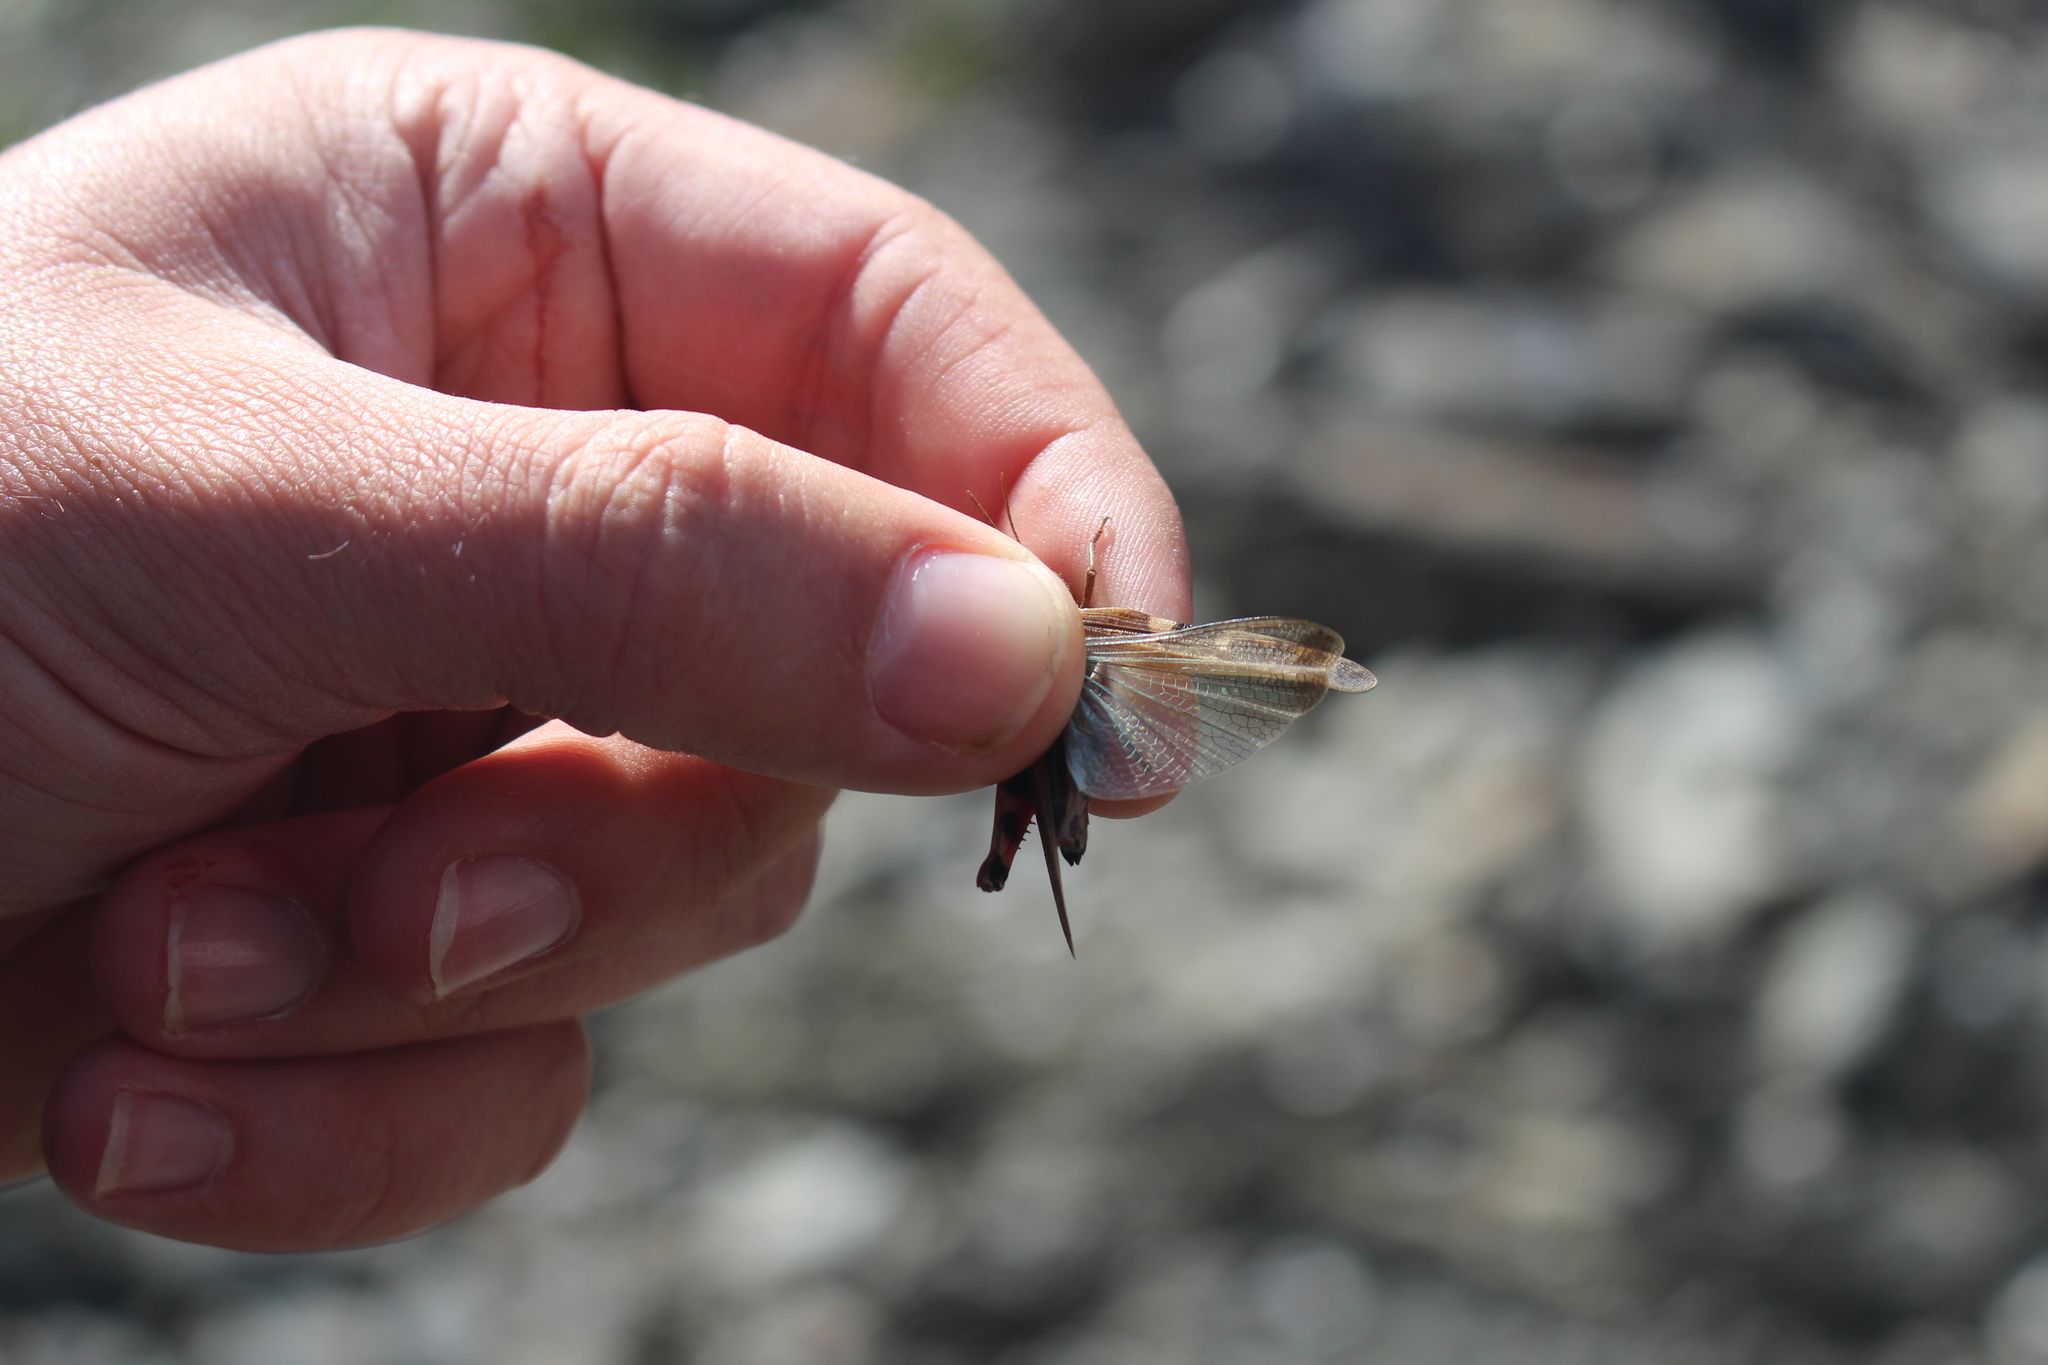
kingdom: Animalia
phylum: Arthropoda
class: Insecta
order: Orthoptera
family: Acrididae
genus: Aiolopus
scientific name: Aiolopus strepens
